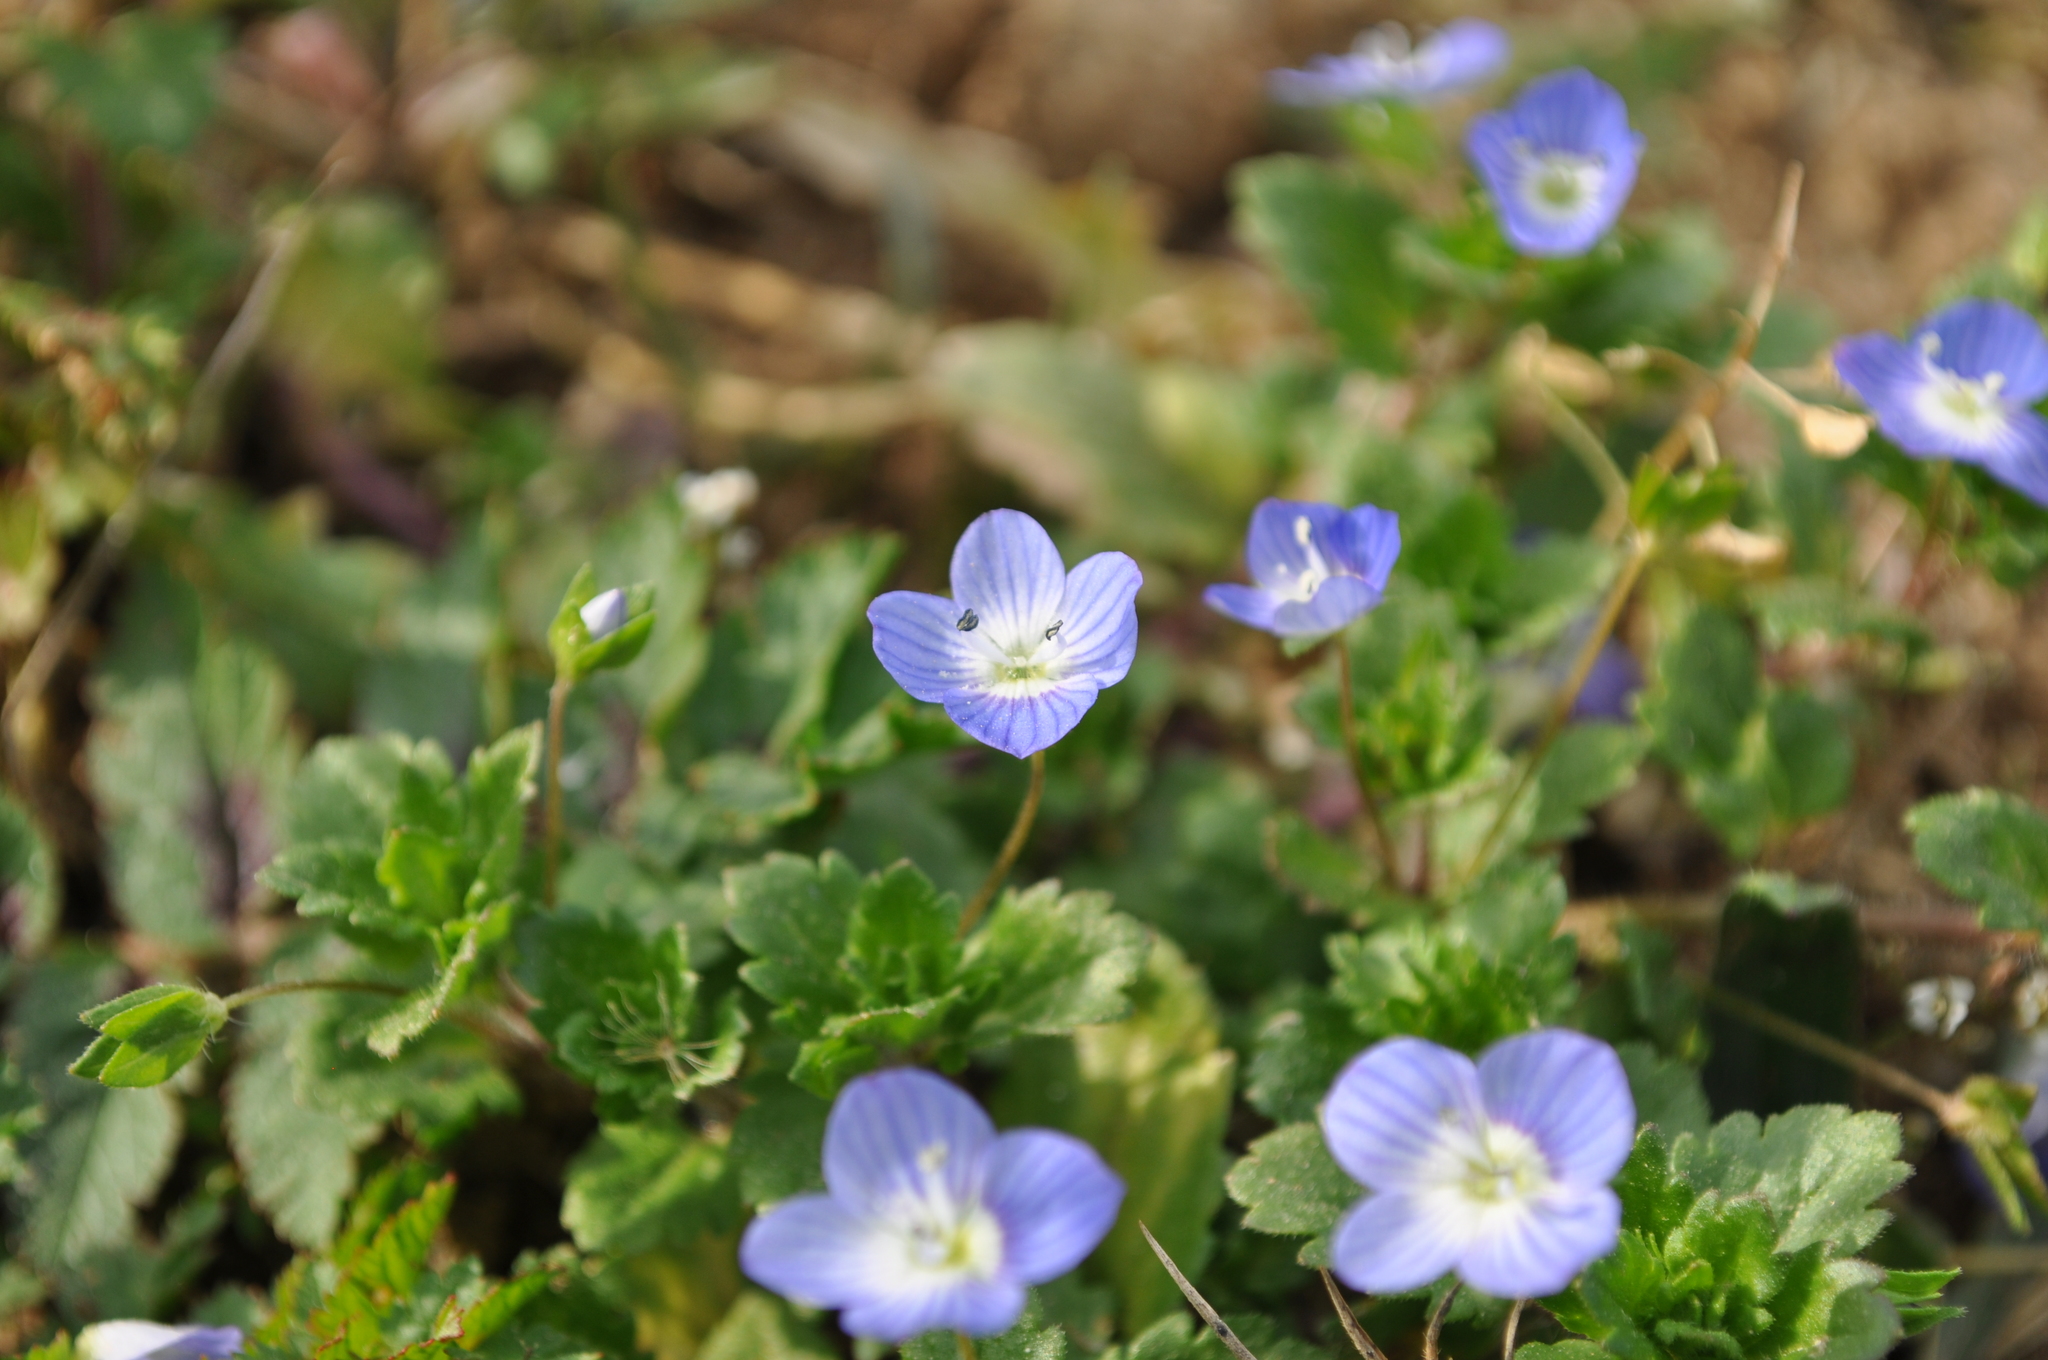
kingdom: Plantae
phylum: Tracheophyta
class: Magnoliopsida
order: Lamiales
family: Plantaginaceae
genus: Veronica
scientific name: Veronica persica
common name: Common field-speedwell
